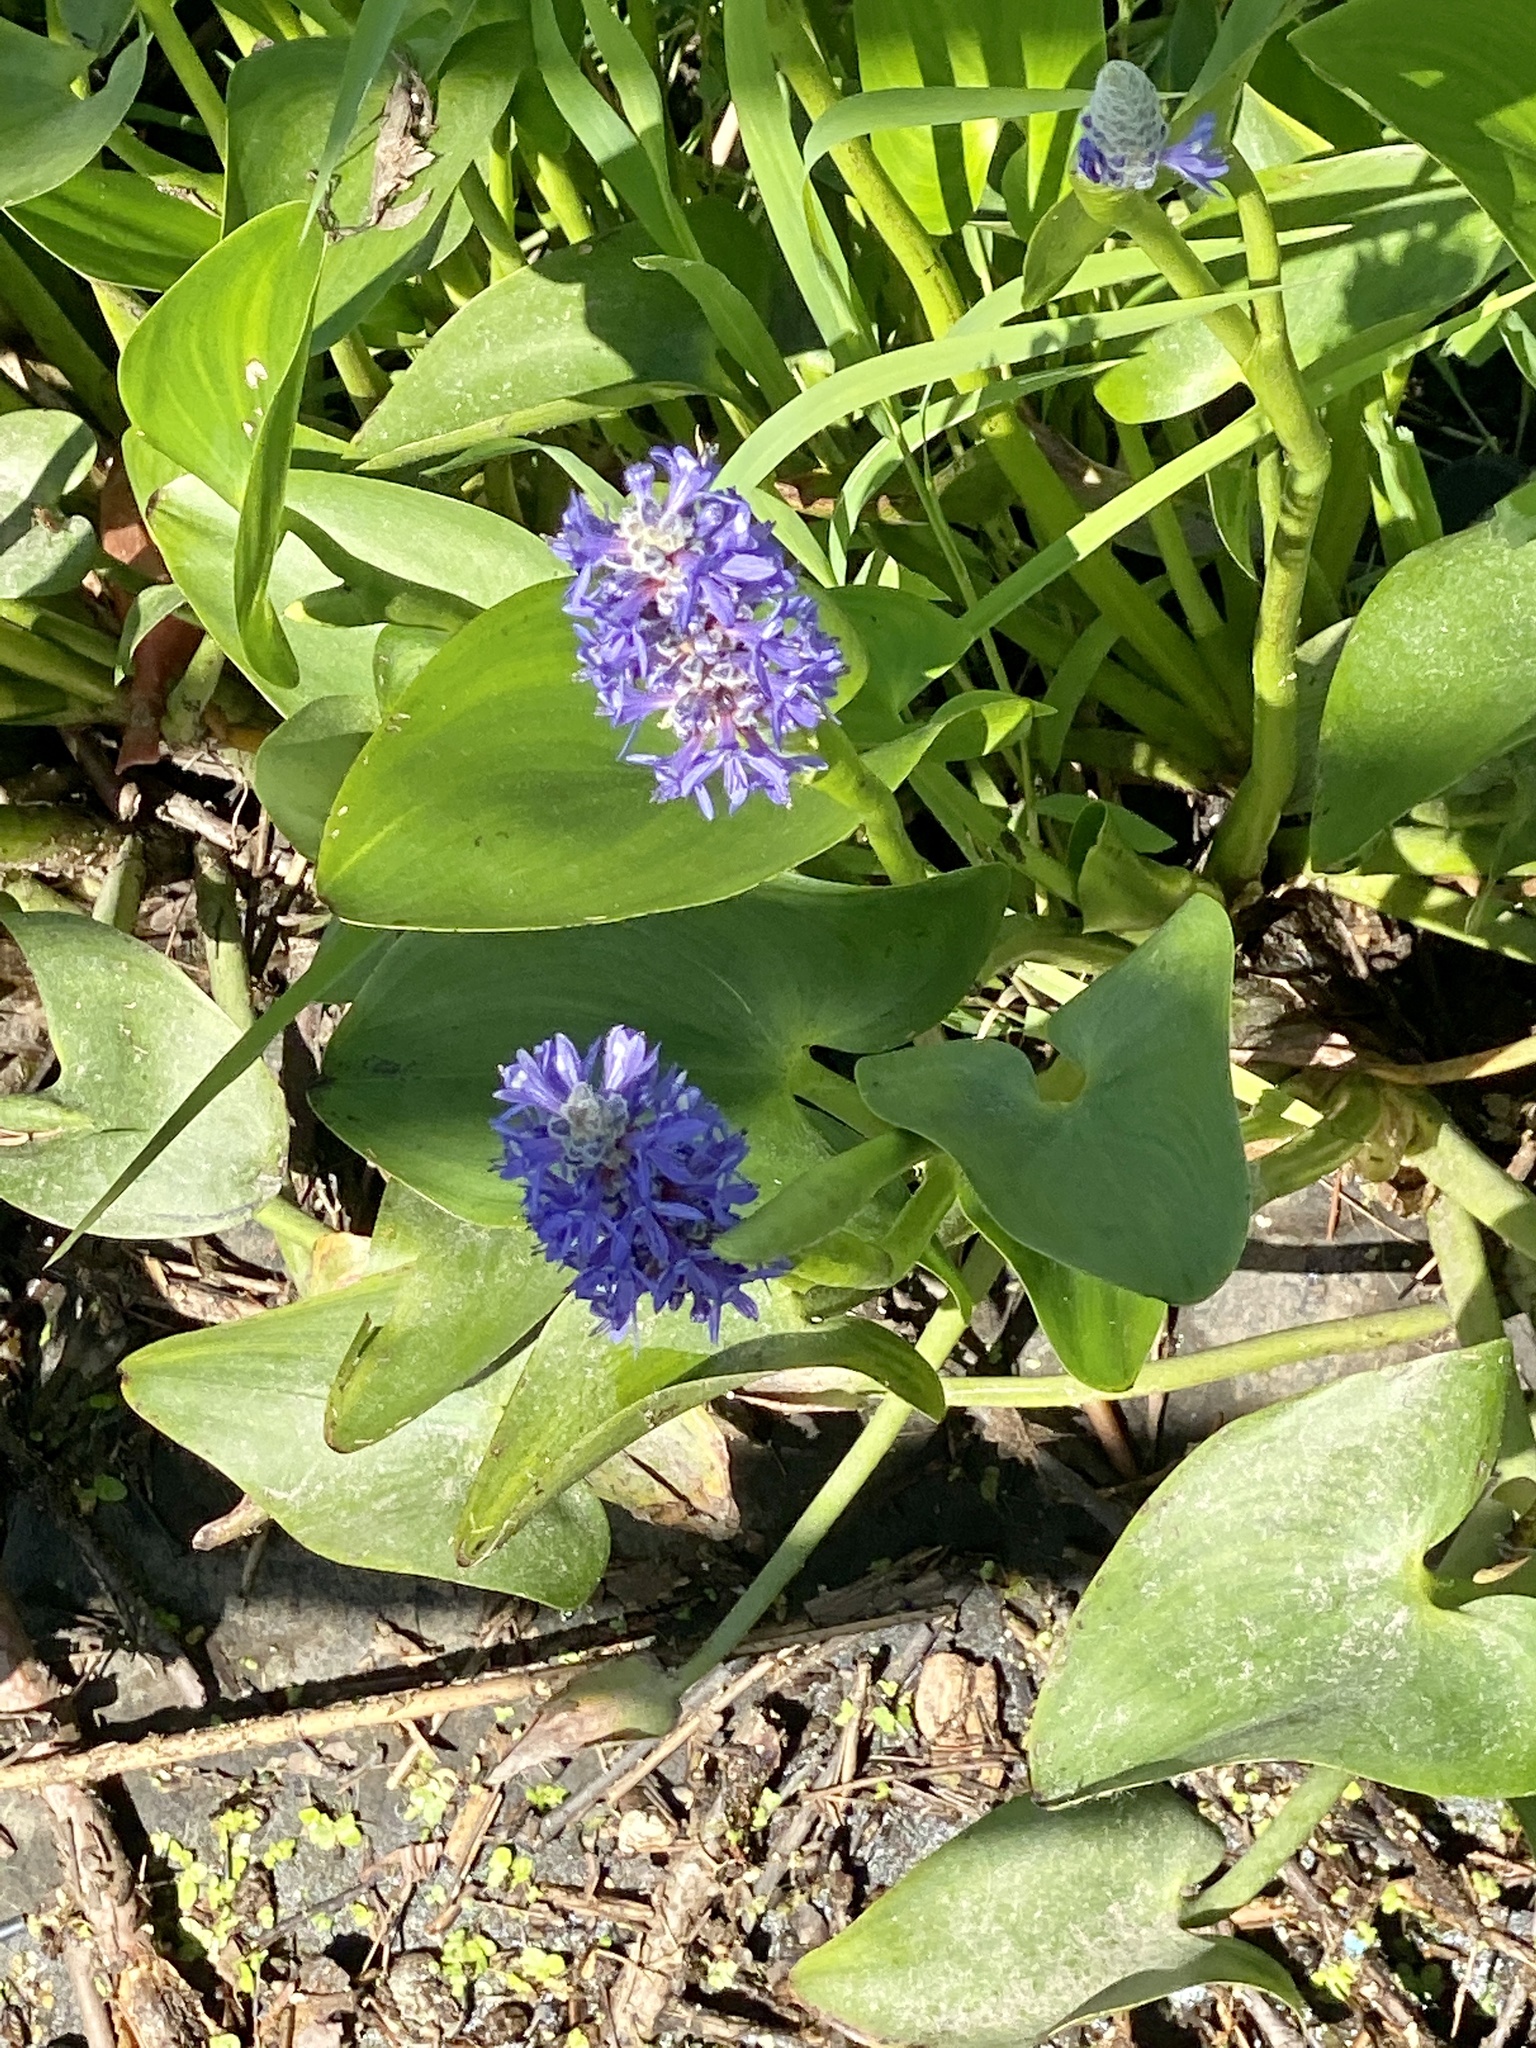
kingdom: Plantae
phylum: Tracheophyta
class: Liliopsida
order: Commelinales
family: Pontederiaceae
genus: Pontederia
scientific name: Pontederia cordata
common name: Pickerelweed
